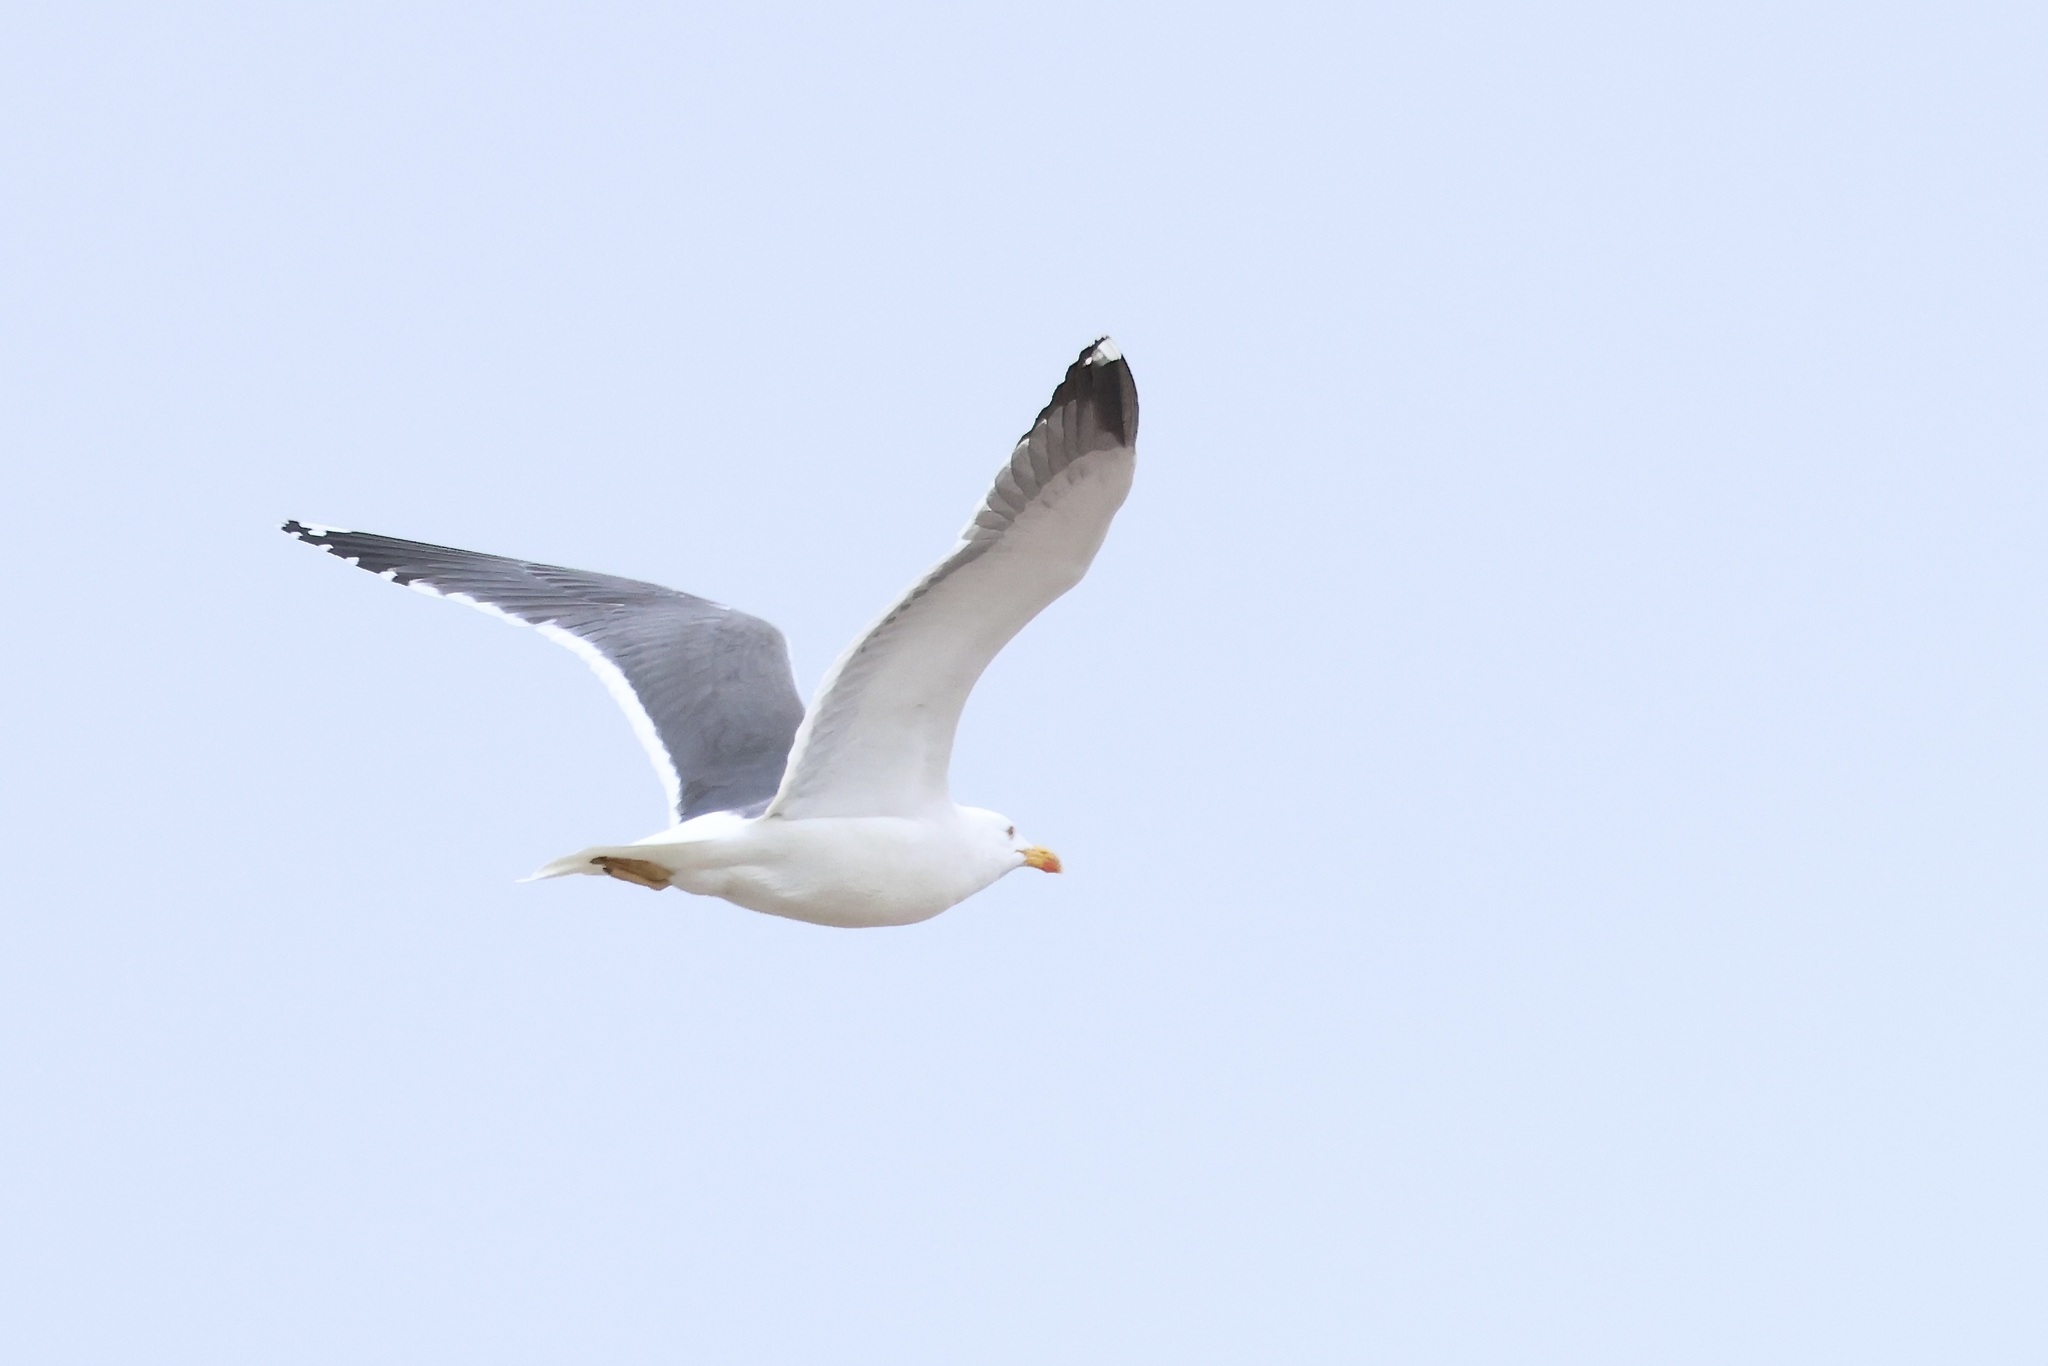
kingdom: Animalia
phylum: Chordata
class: Aves
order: Charadriiformes
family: Laridae
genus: Larus
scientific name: Larus michahellis
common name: Yellow-legged gull
